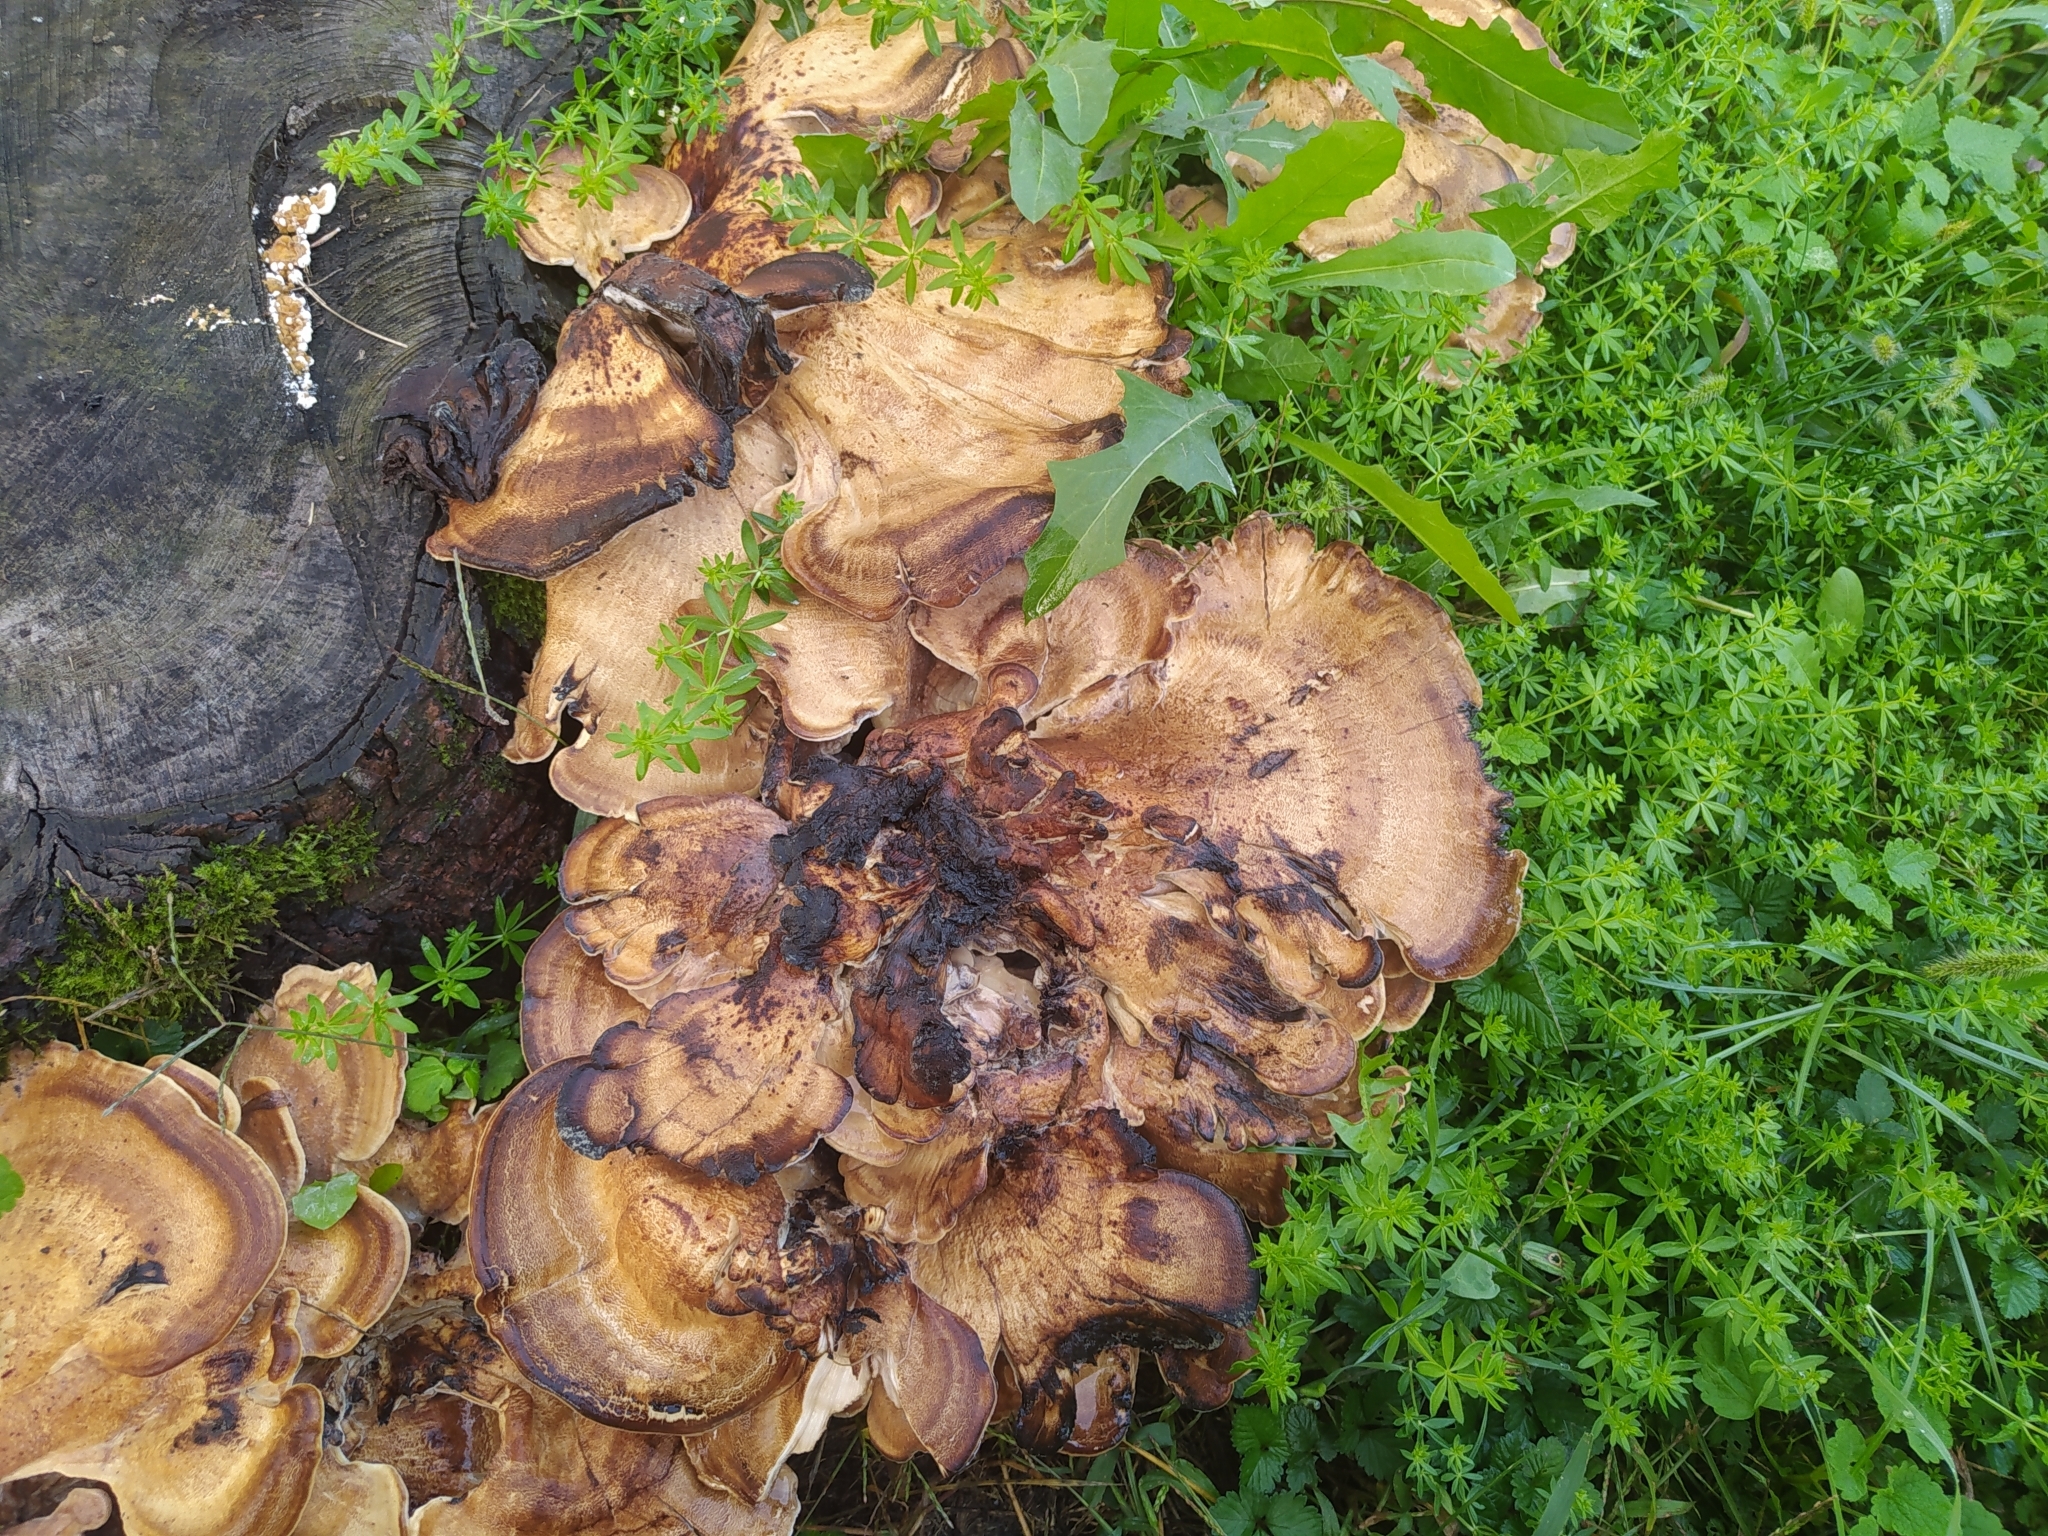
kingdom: Fungi
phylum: Basidiomycota
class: Agaricomycetes
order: Polyporales
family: Meripilaceae
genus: Meripilus
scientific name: Meripilus giganteus
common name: Giant polypore
